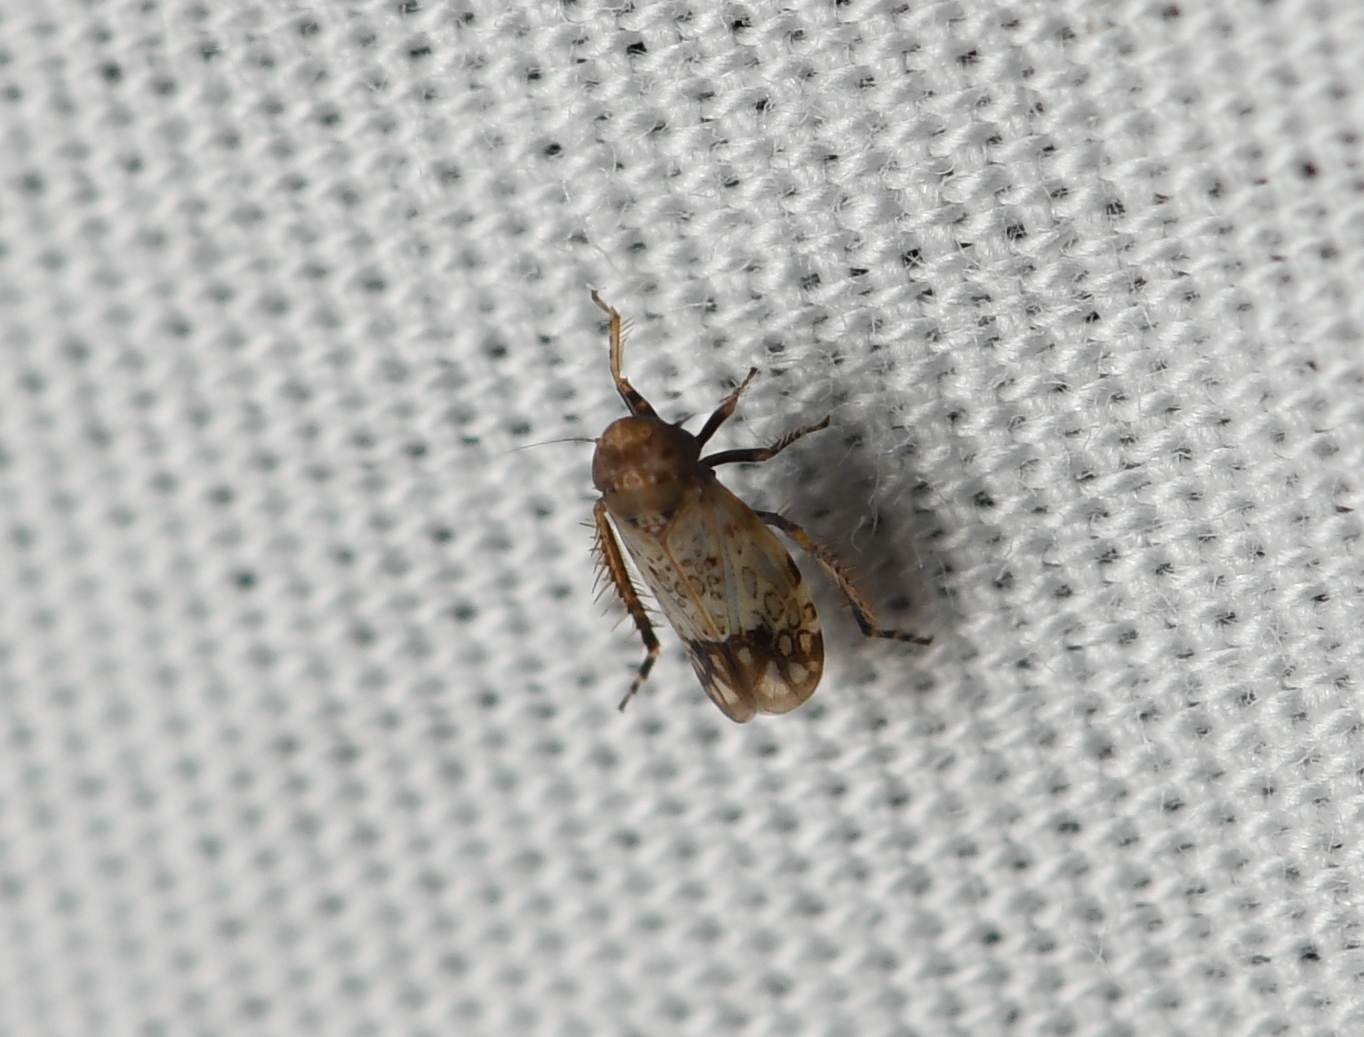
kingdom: Animalia
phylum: Arthropoda
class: Insecta
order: Hemiptera
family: Cicadellidae
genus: Polyamia
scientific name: Polyamia tantilla
